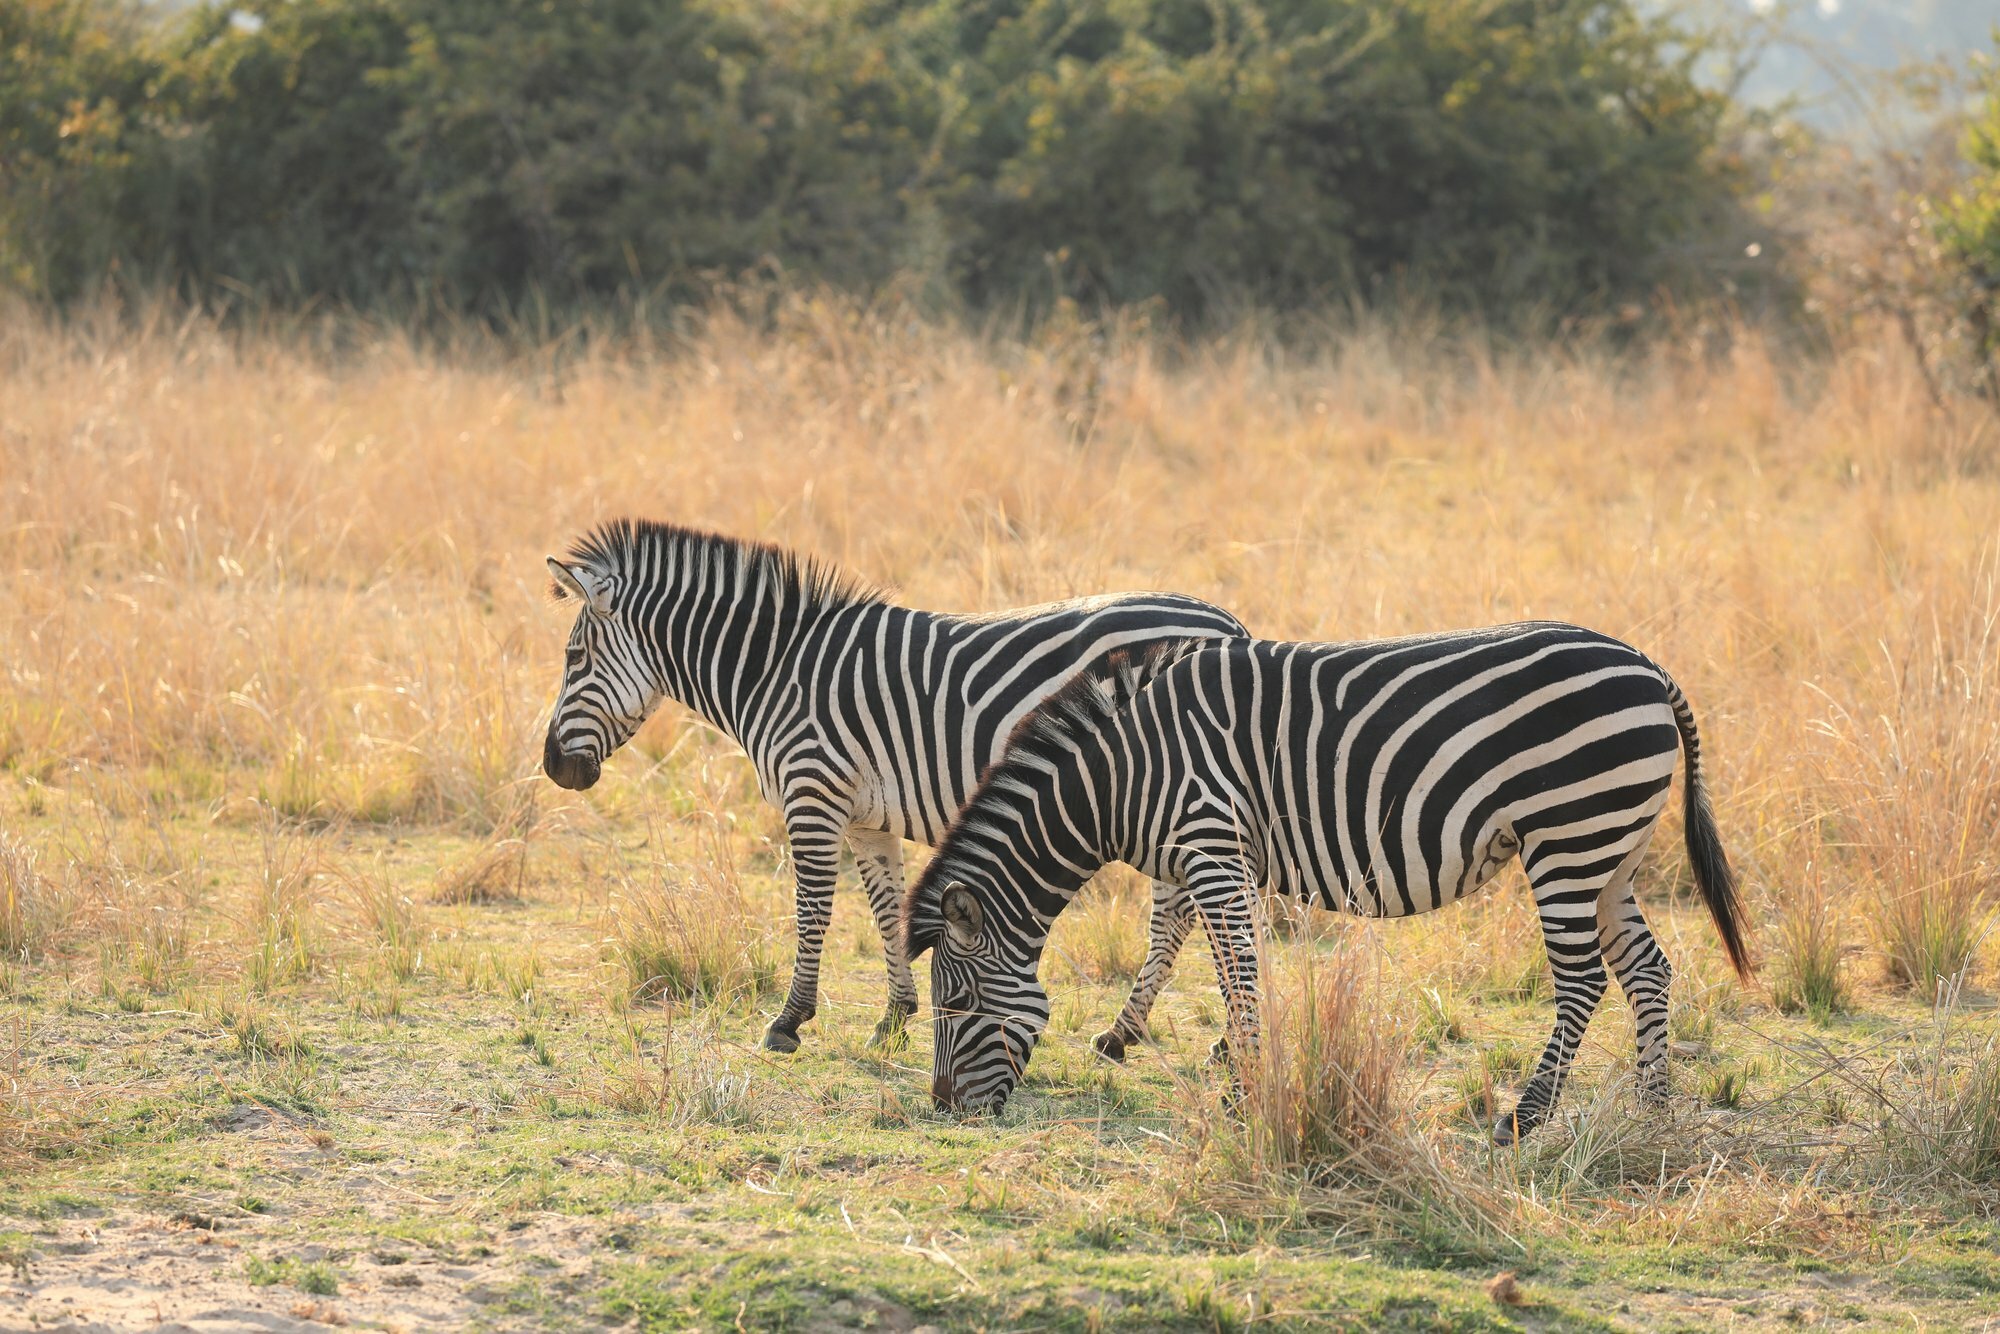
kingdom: Animalia
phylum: Chordata
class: Mammalia
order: Perissodactyla
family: Equidae
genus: Equus
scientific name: Equus quagga
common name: Plains zebra
